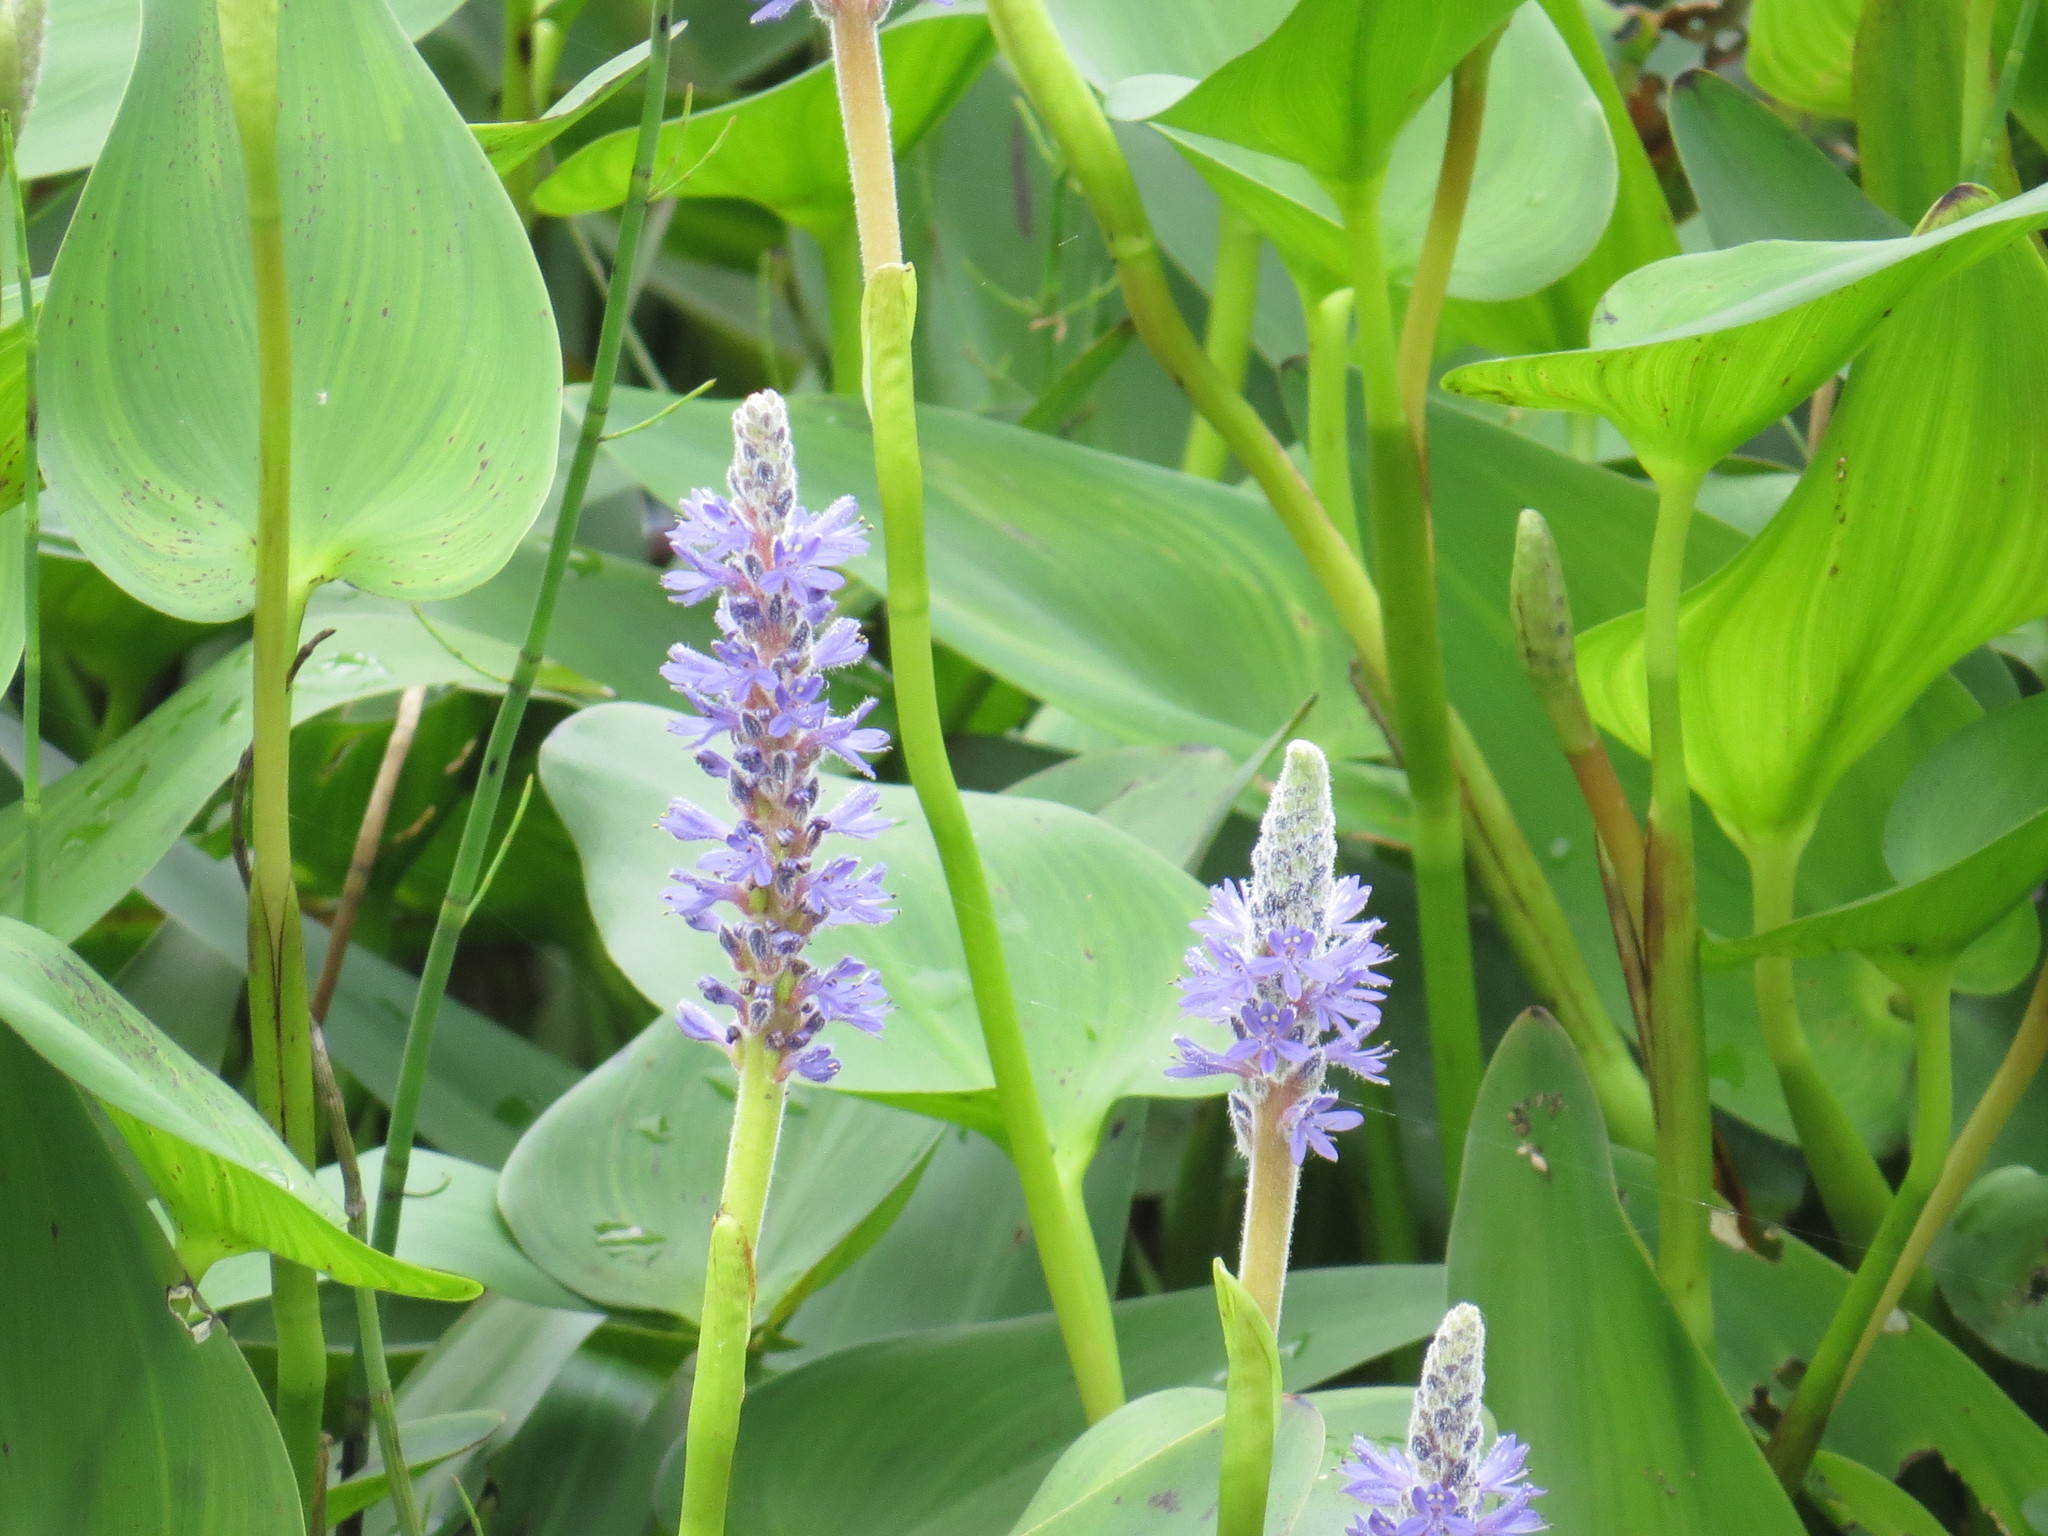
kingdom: Plantae
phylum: Tracheophyta
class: Liliopsida
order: Commelinales
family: Pontederiaceae
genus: Pontederia
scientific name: Pontederia cordata
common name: Pickerelweed
